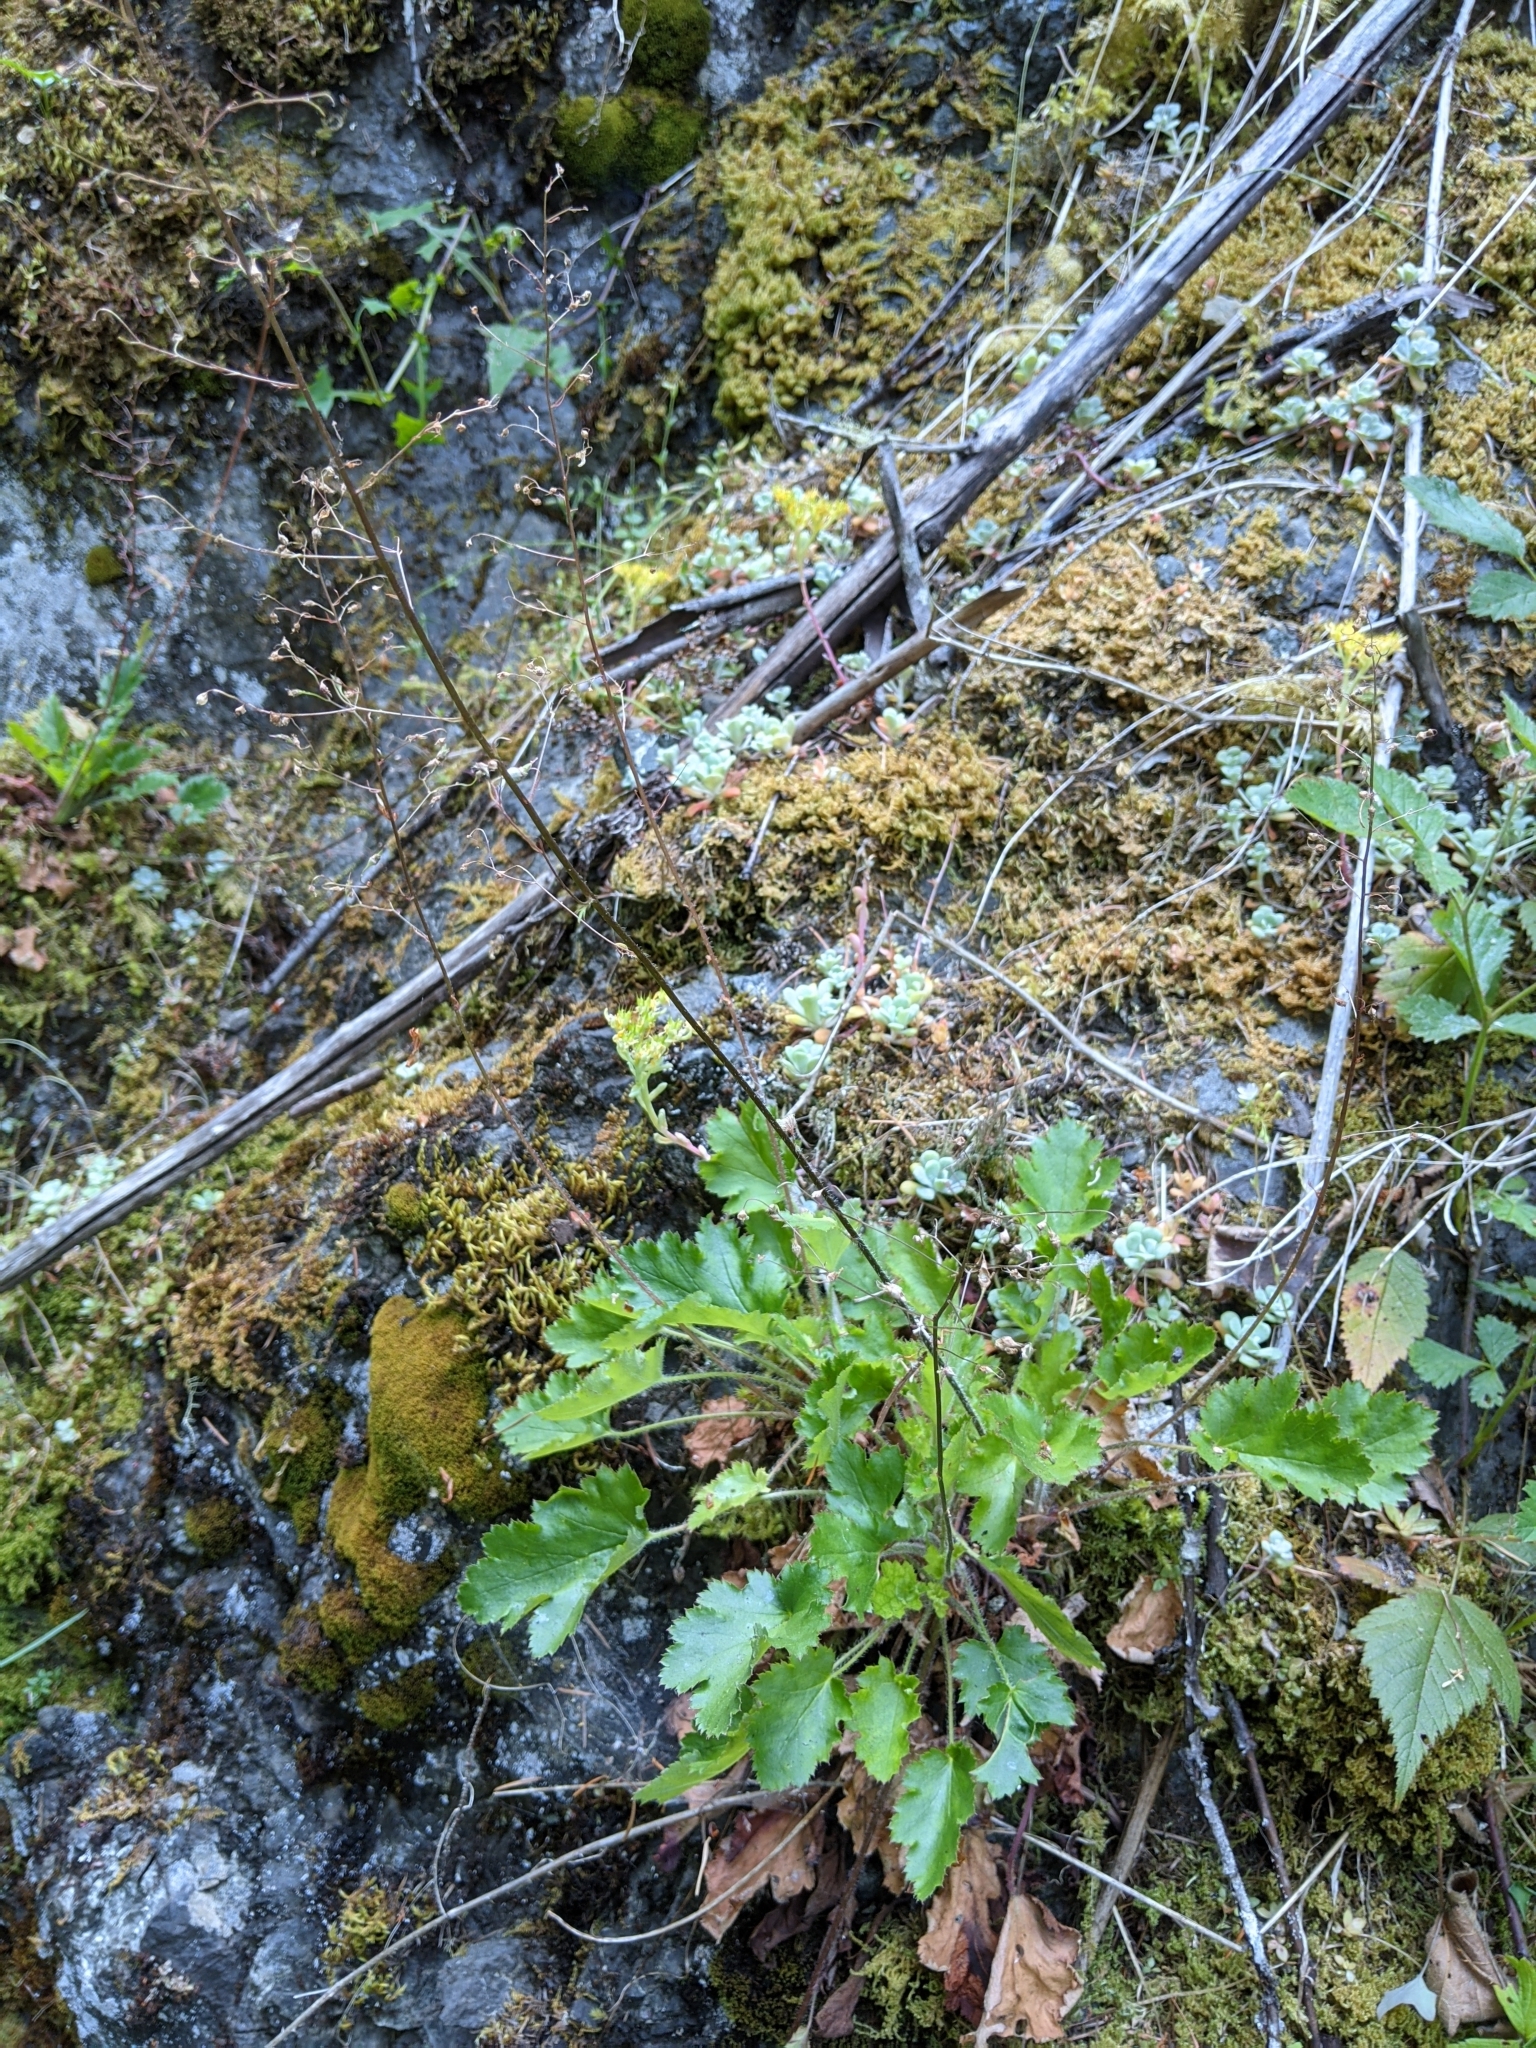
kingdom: Plantae
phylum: Tracheophyta
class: Magnoliopsida
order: Saxifragales
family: Saxifragaceae
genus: Heuchera
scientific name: Heuchera micrantha
